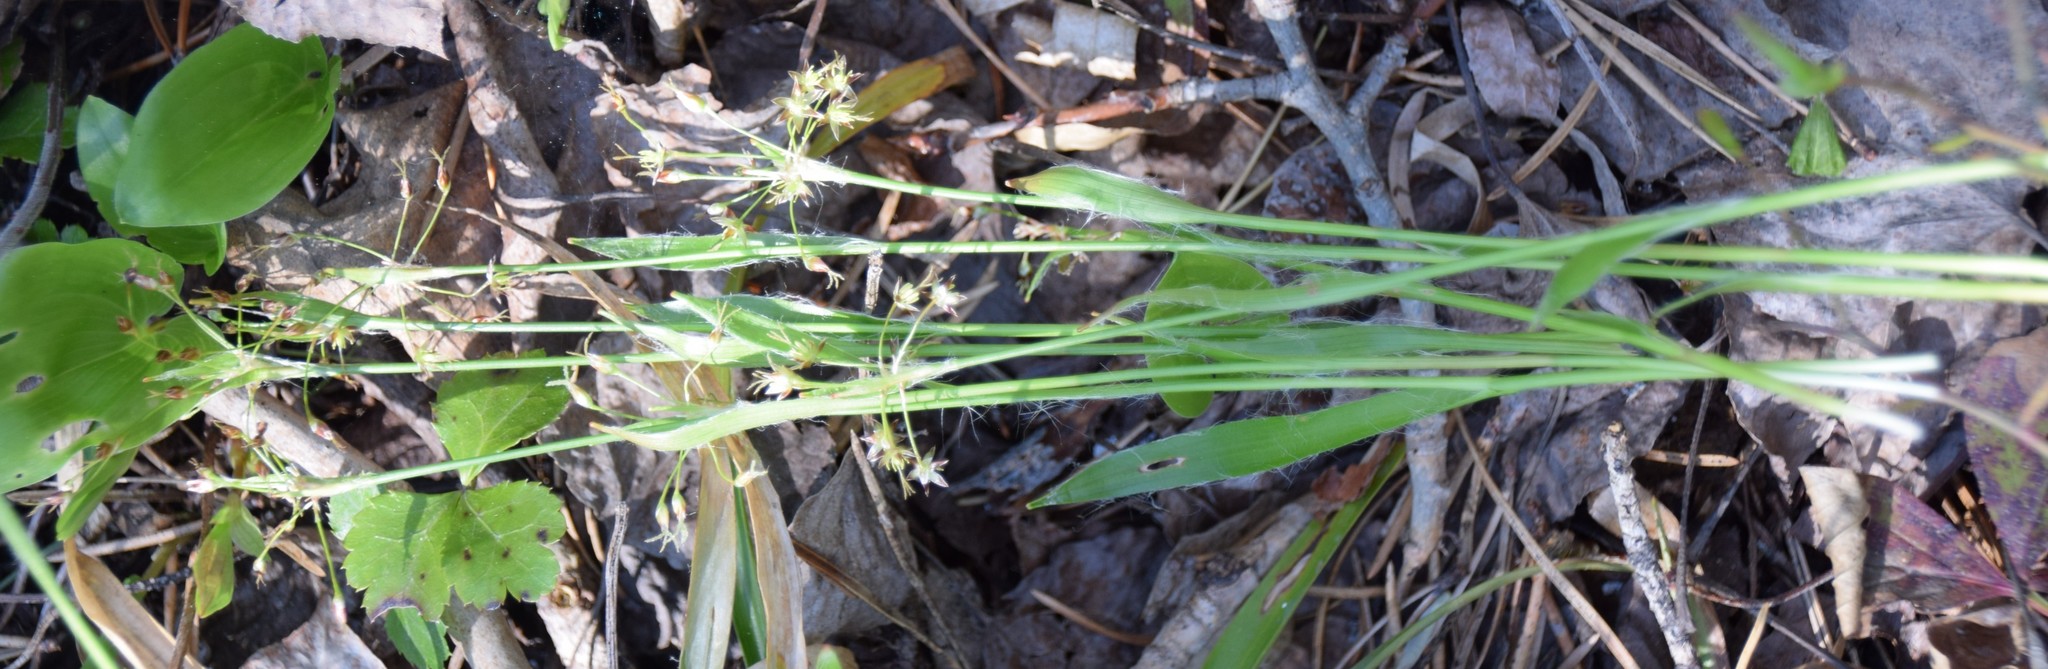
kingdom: Plantae
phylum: Tracheophyta
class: Liliopsida
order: Poales
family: Juncaceae
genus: Luzula
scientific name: Luzula acuminata
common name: Hairy woodrush
